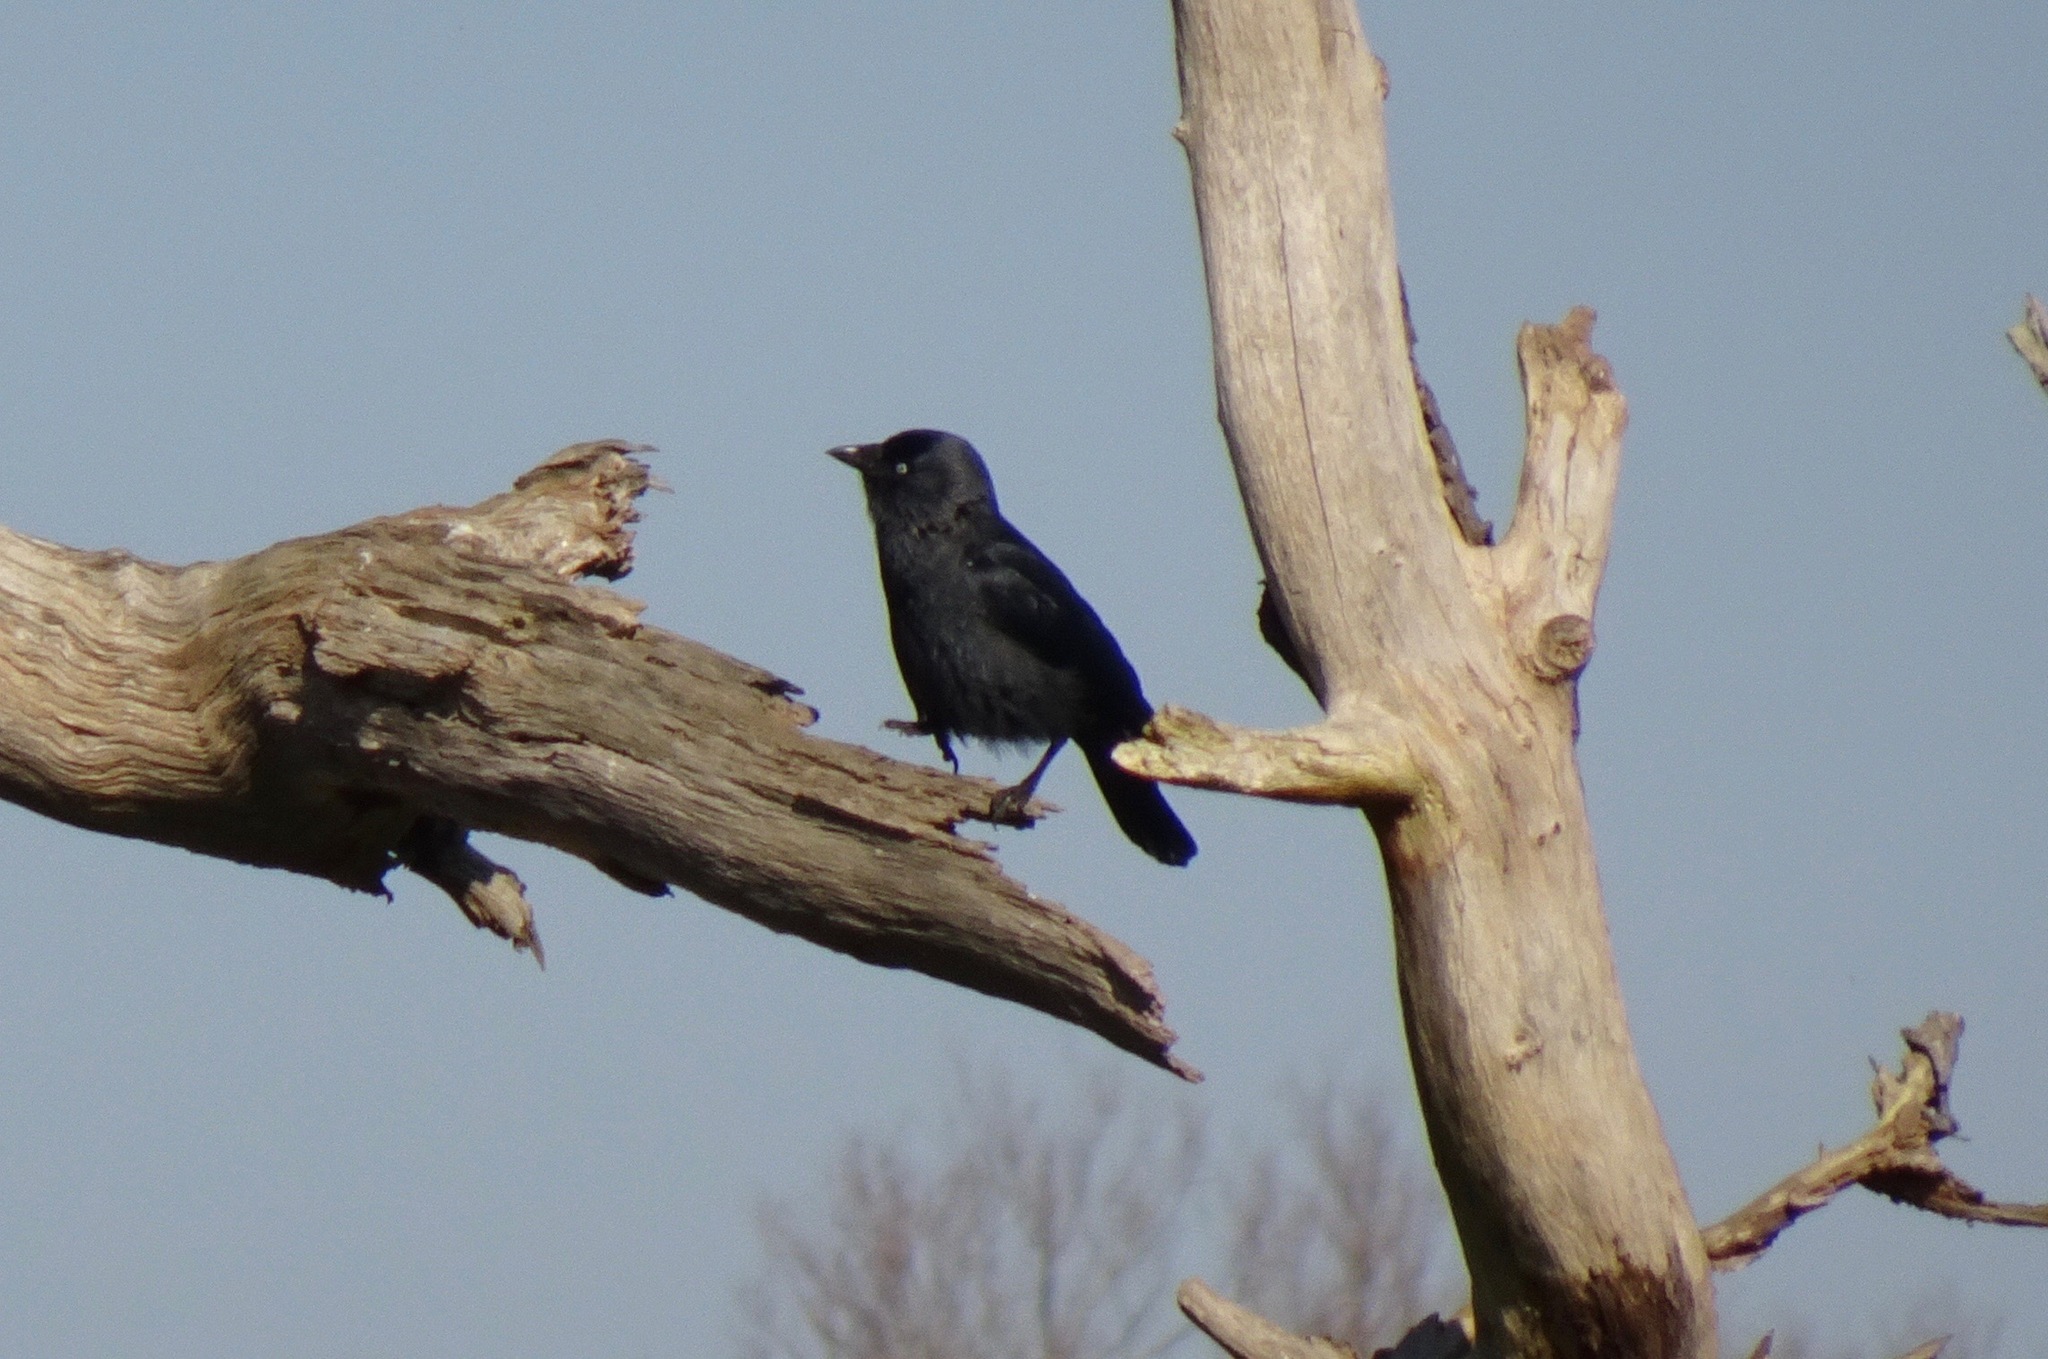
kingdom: Animalia
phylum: Chordata
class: Aves
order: Passeriformes
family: Corvidae
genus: Coloeus
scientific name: Coloeus monedula
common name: Western jackdaw
